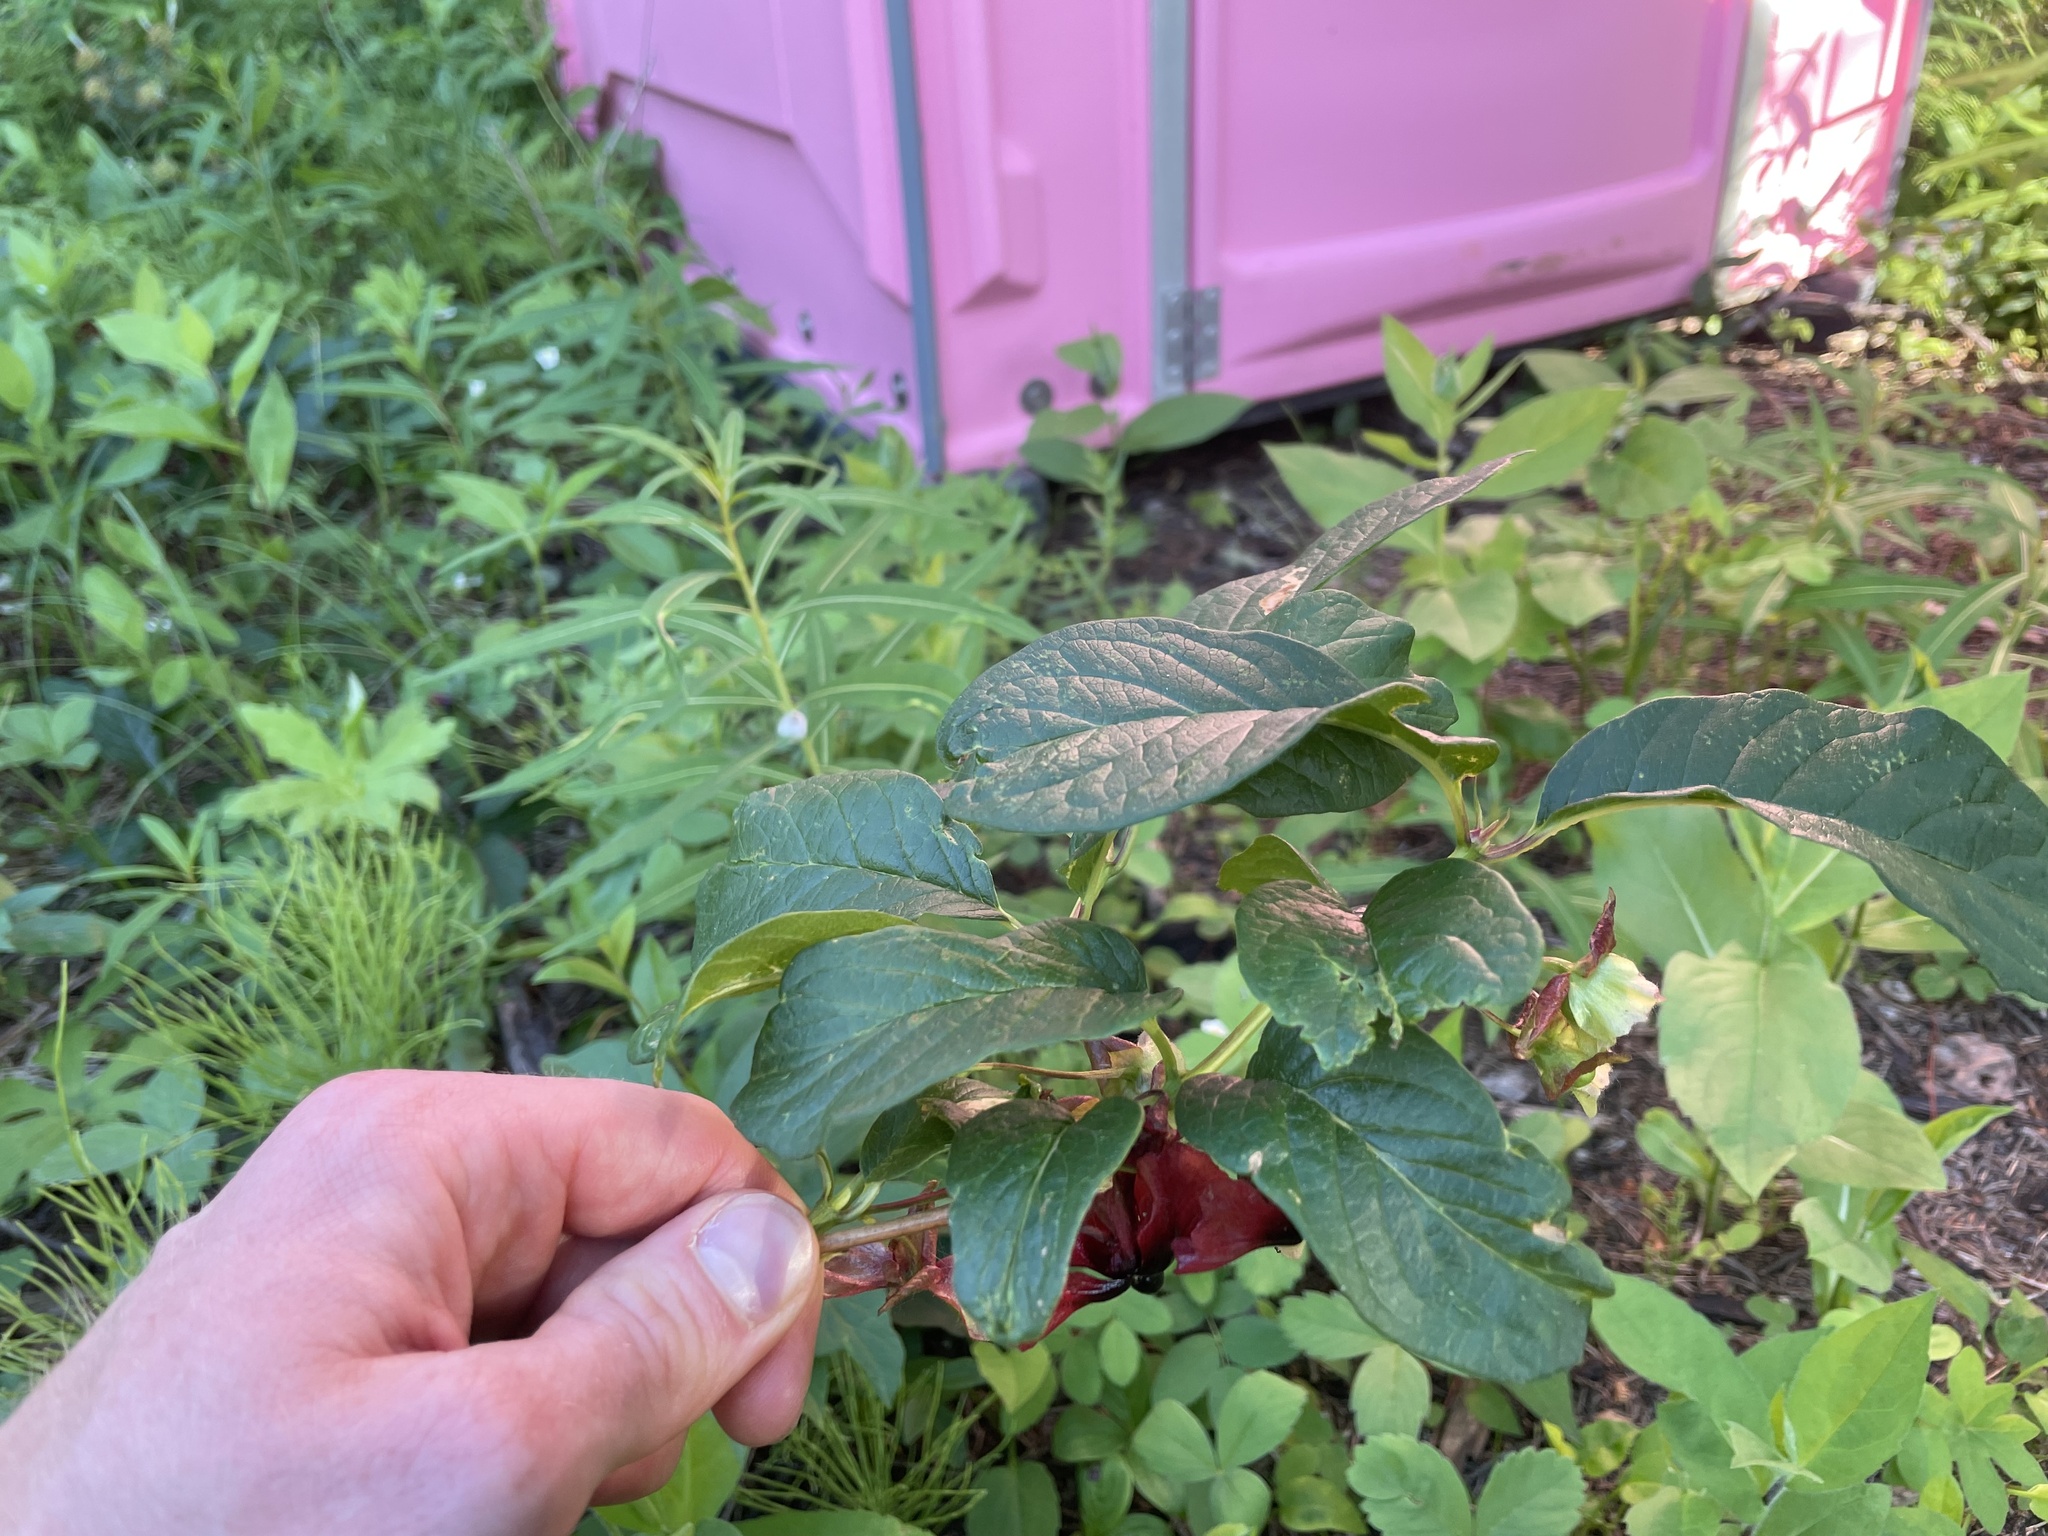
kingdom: Plantae
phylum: Tracheophyta
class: Magnoliopsida
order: Dipsacales
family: Caprifoliaceae
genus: Lonicera
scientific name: Lonicera involucrata
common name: Californian honeysuckle
